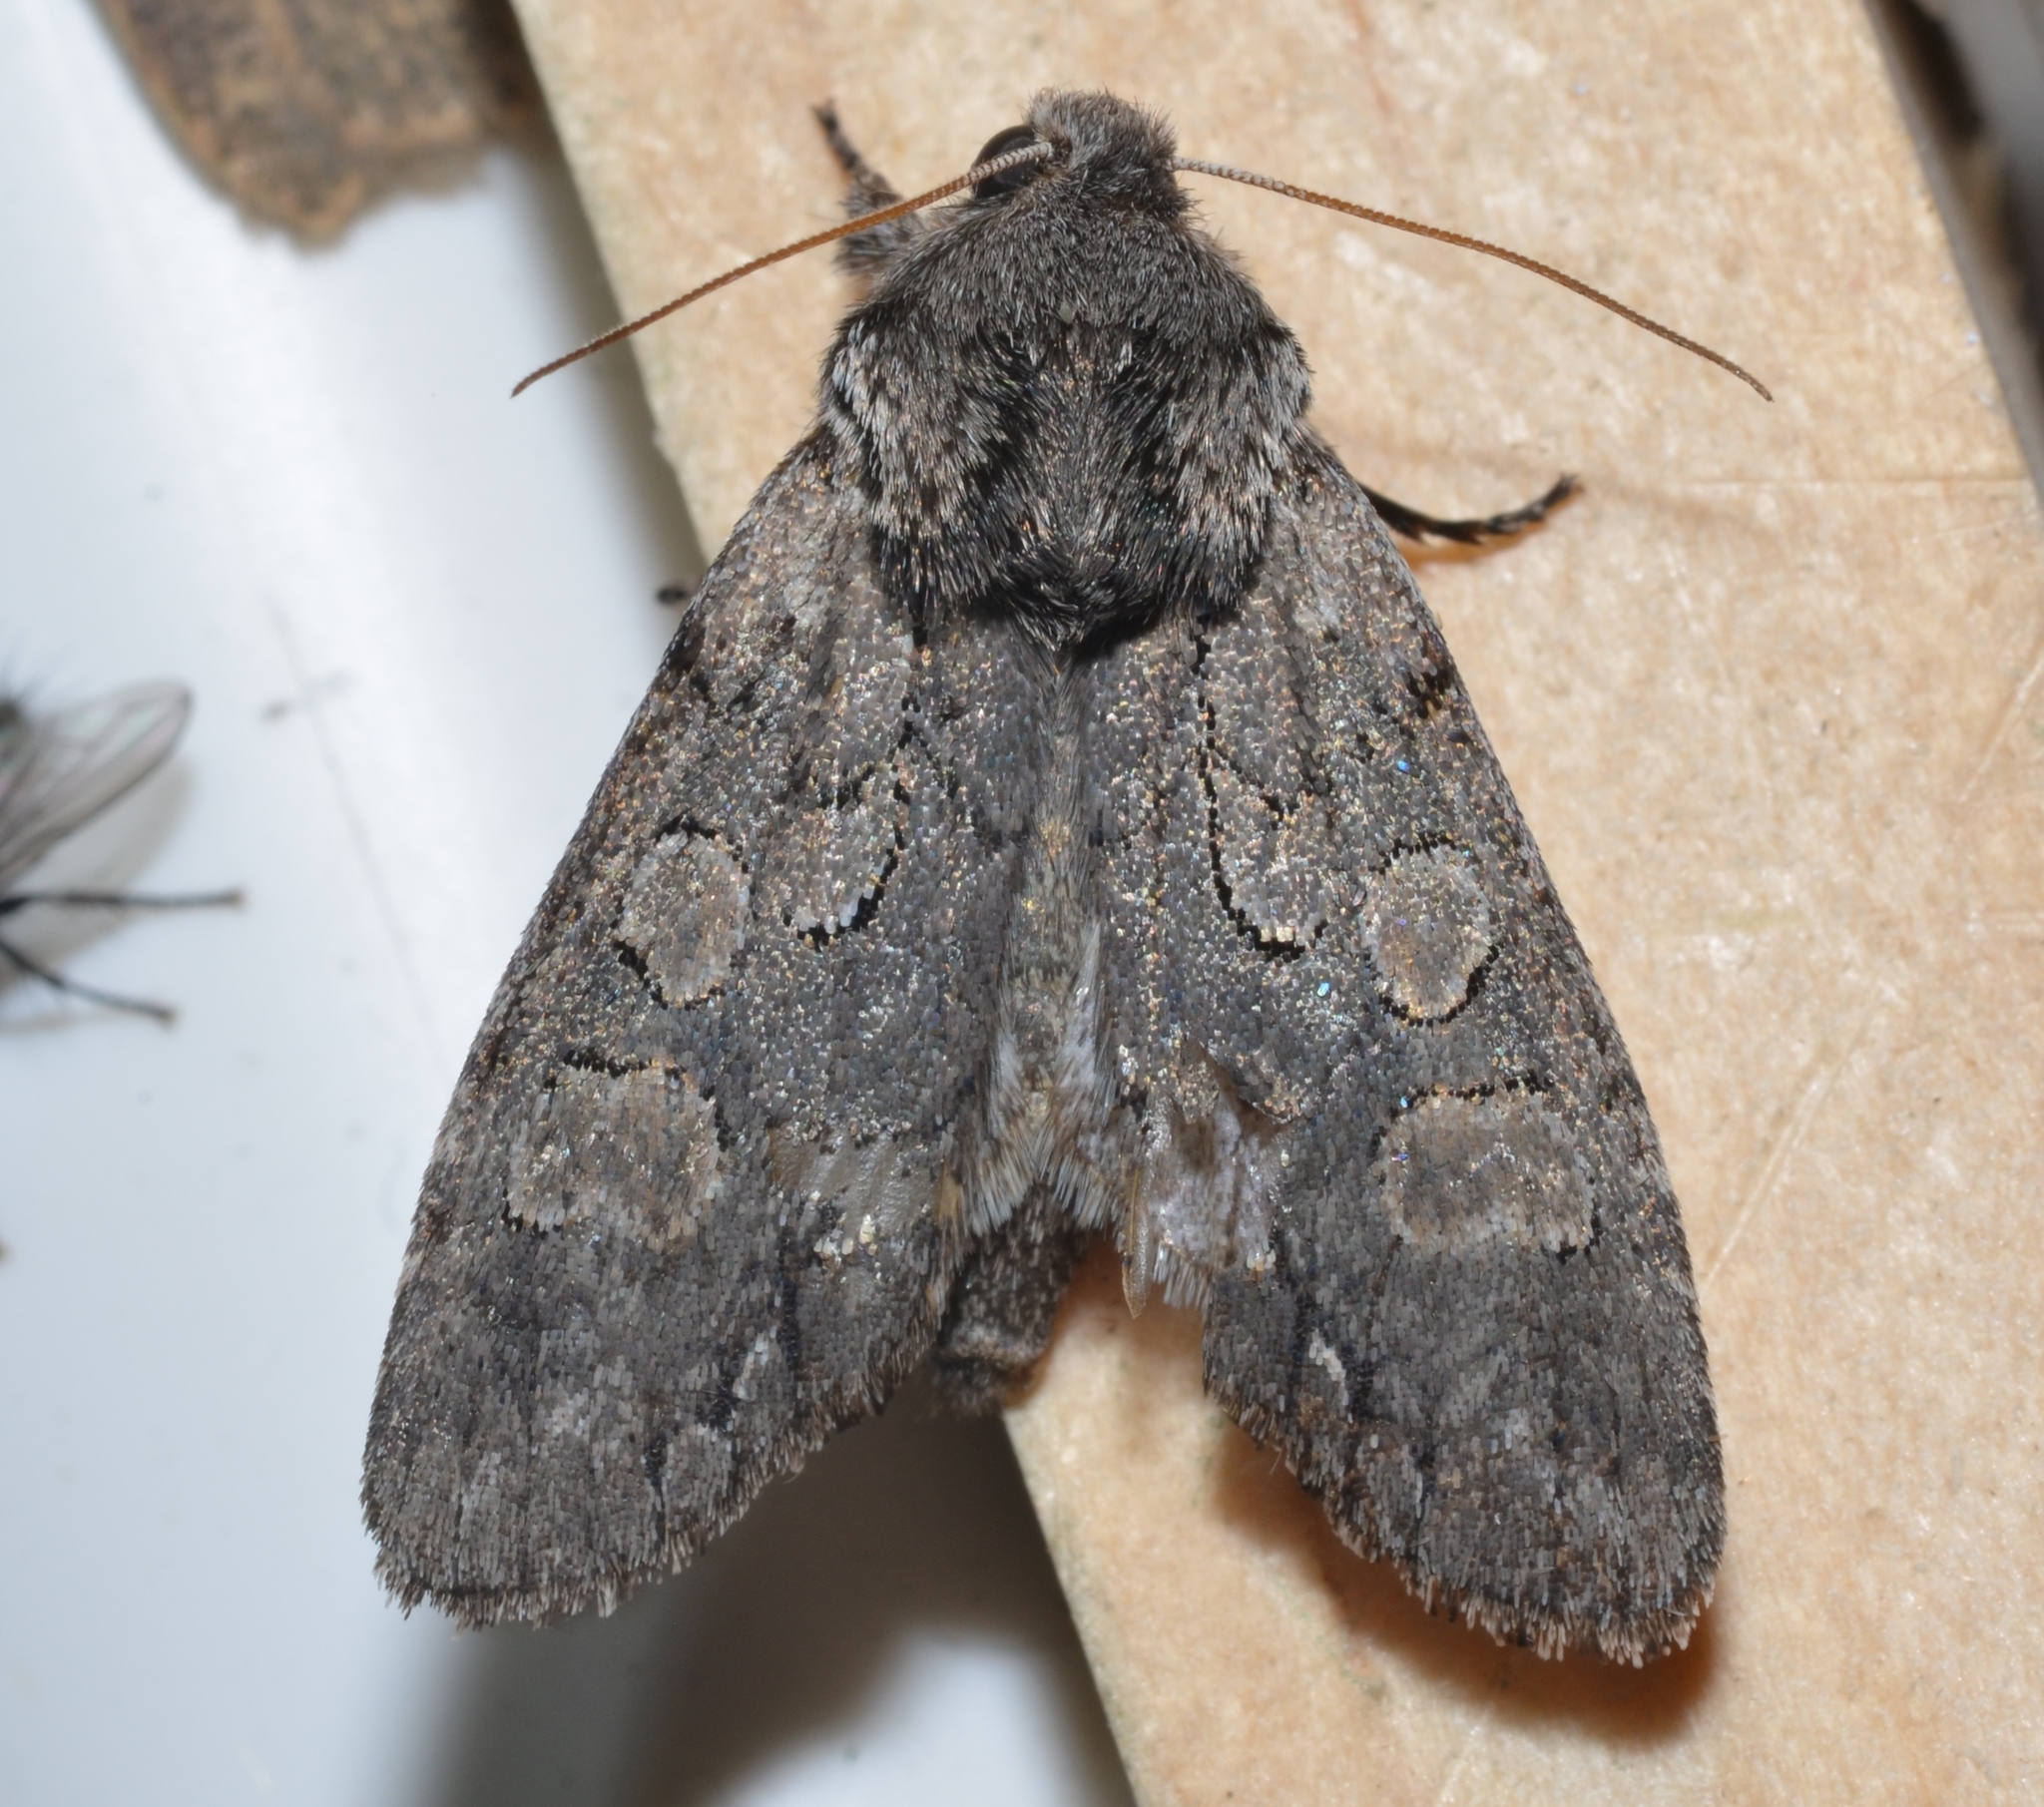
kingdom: Animalia
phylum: Arthropoda
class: Insecta
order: Lepidoptera
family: Noctuidae
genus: Psaphida
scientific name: Psaphida electilis
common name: Chosen sallow
